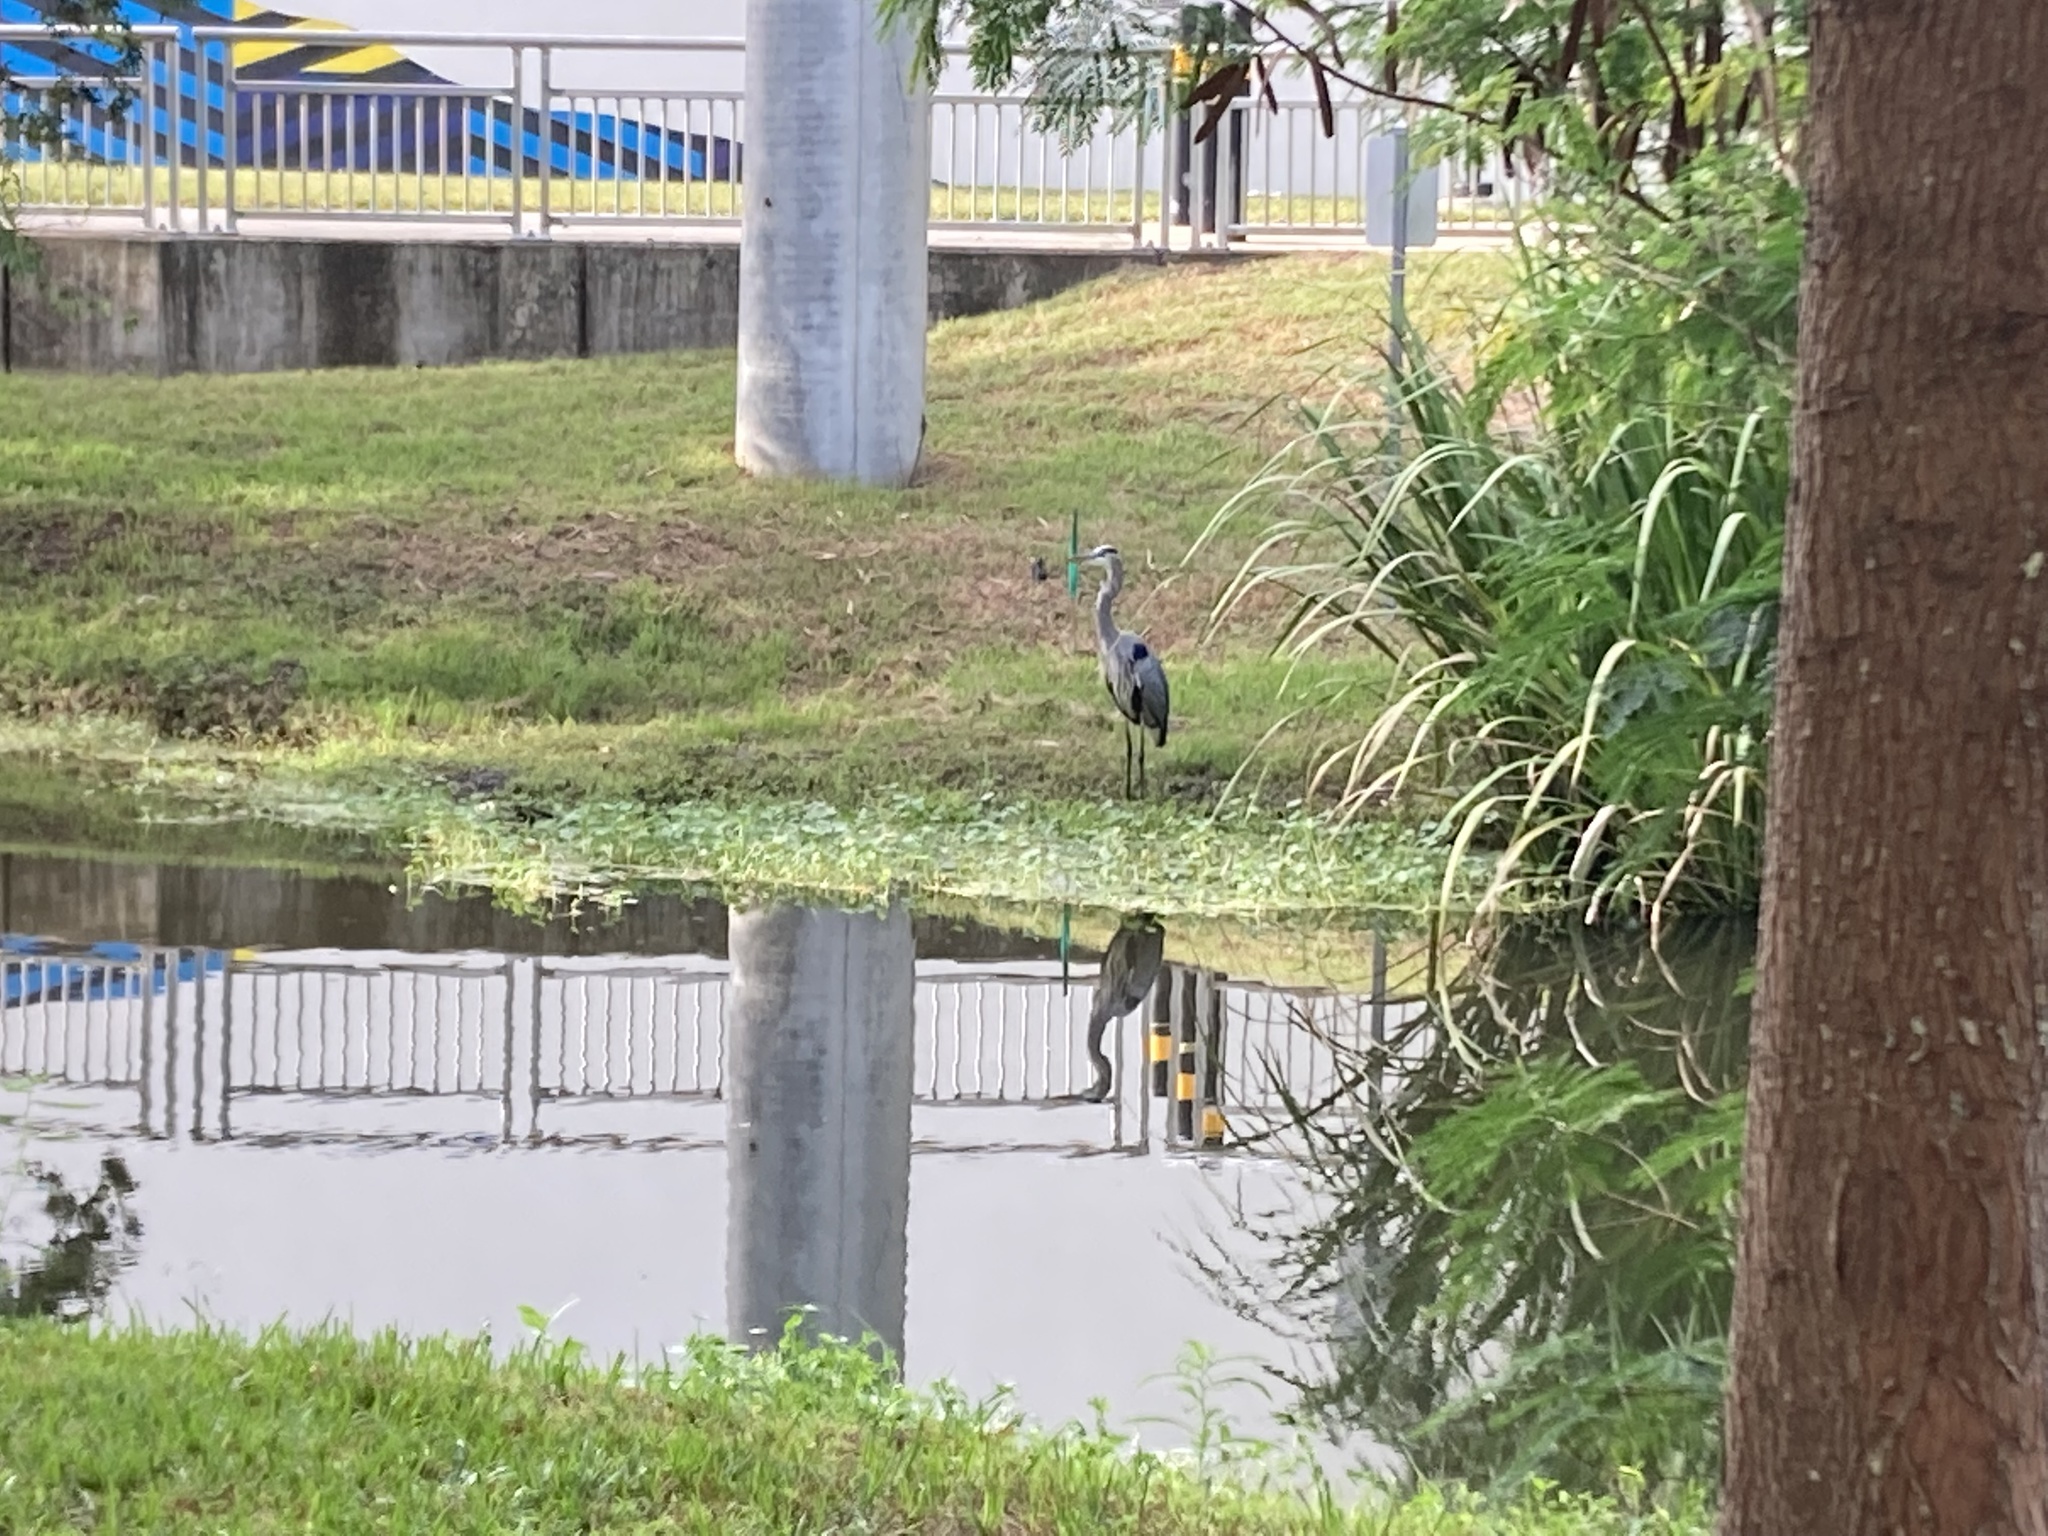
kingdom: Animalia
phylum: Chordata
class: Aves
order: Pelecaniformes
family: Ardeidae
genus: Ardea
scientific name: Ardea herodias
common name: Great blue heron
